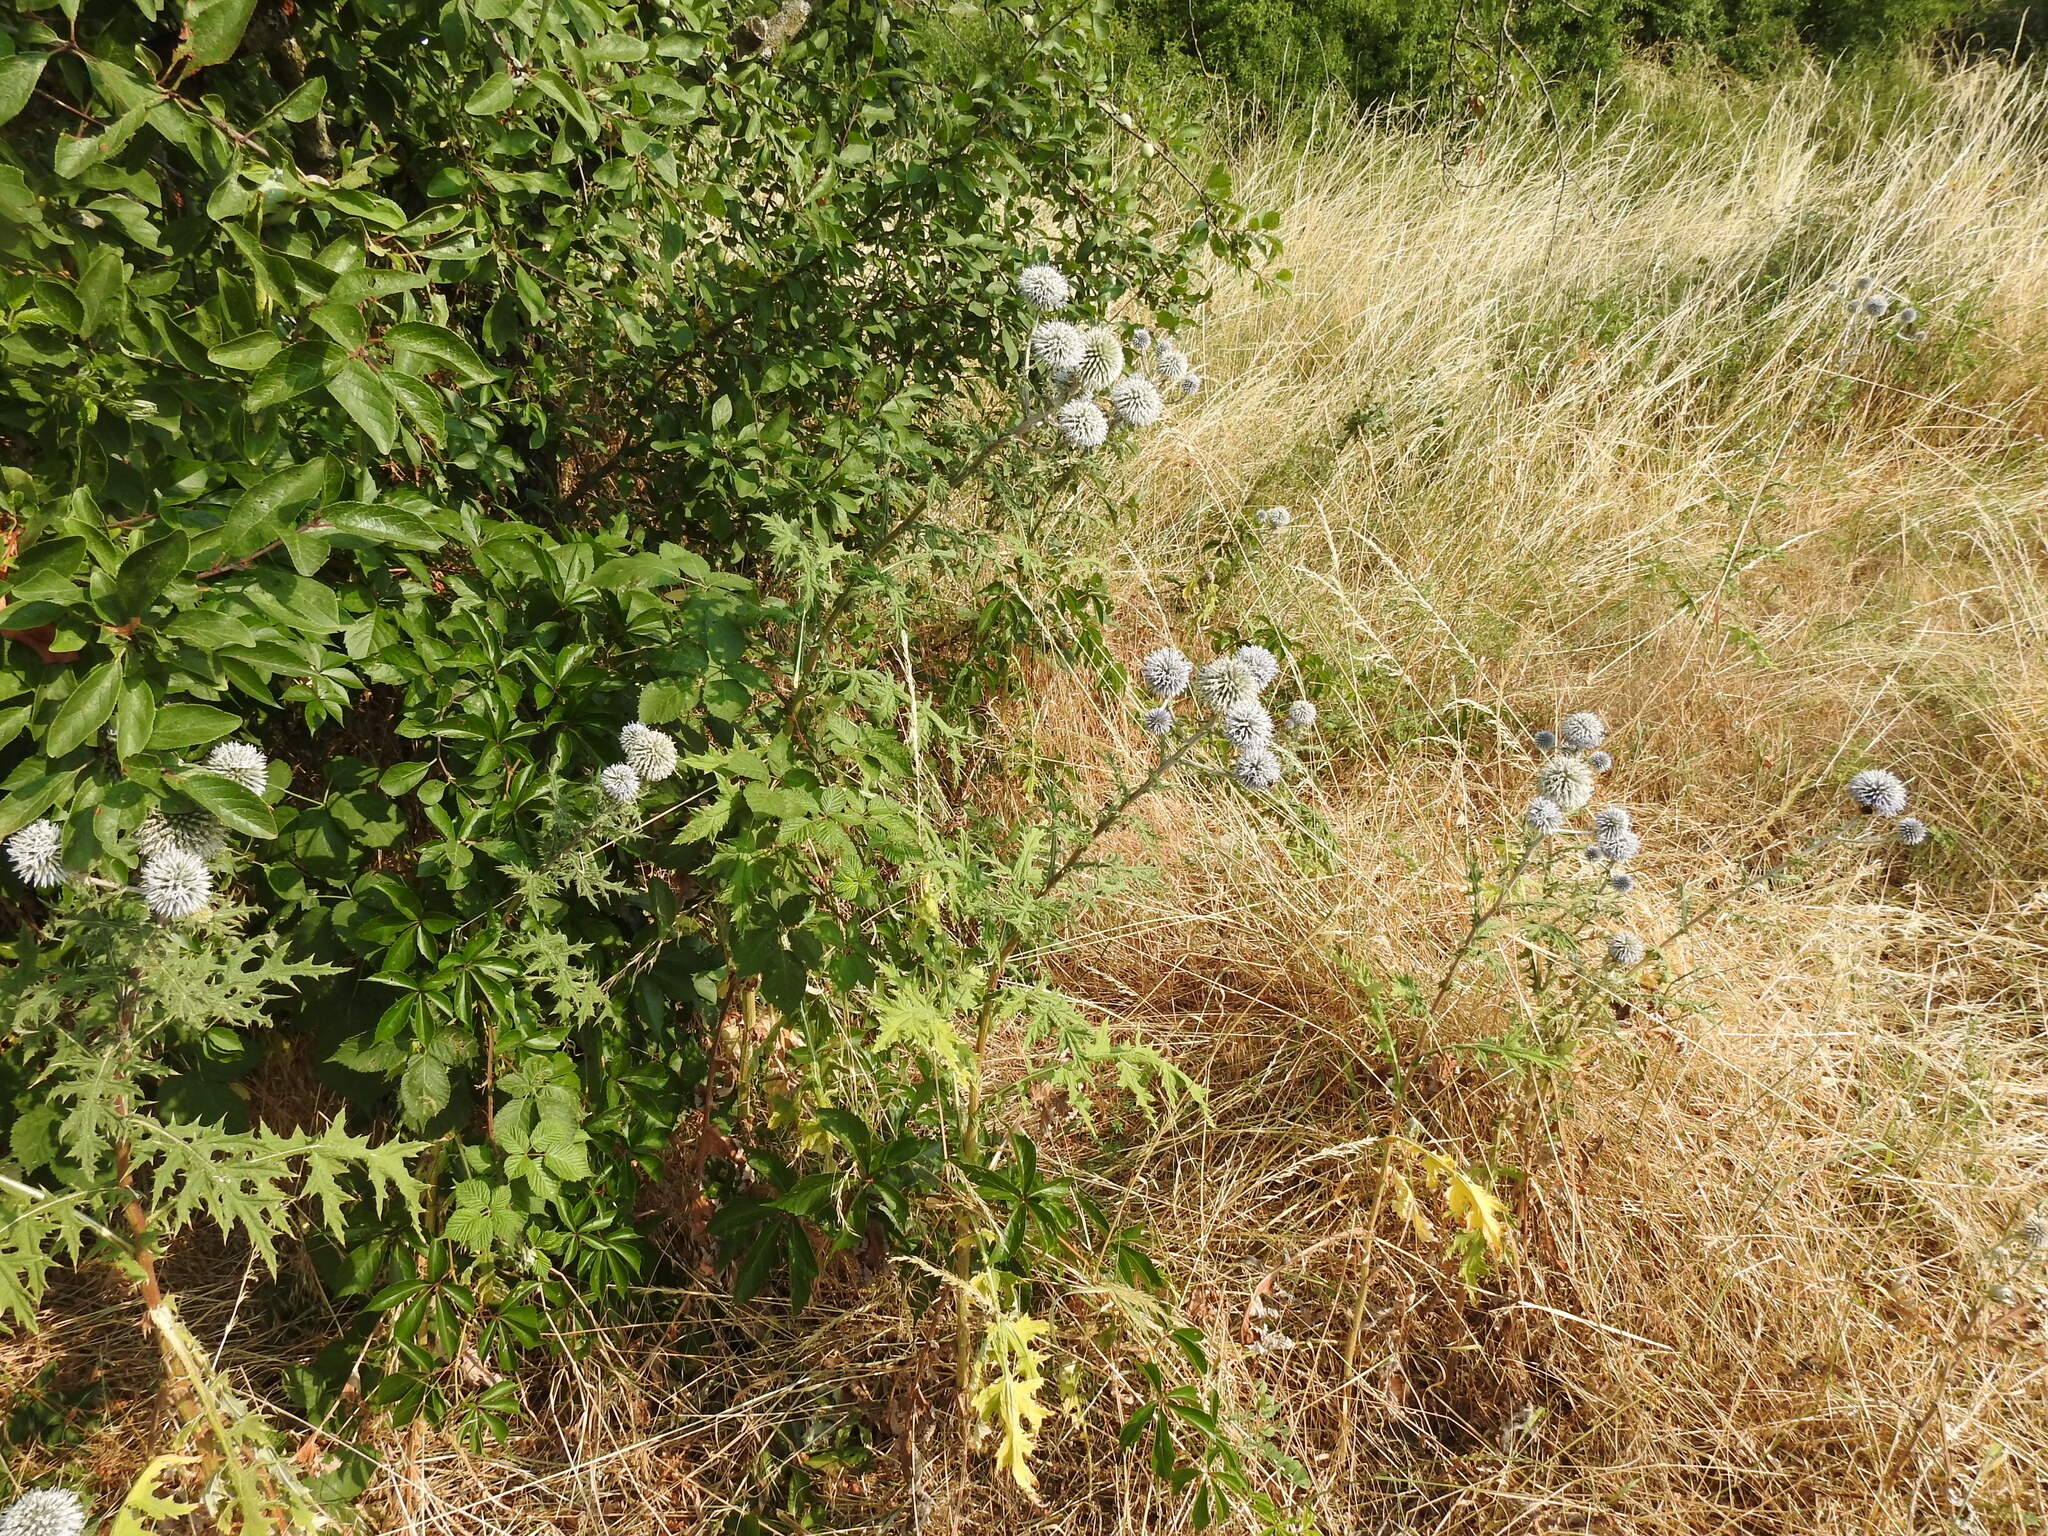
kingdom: Plantae
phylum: Tracheophyta
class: Magnoliopsida
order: Asterales
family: Asteraceae
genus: Echinops
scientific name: Echinops sphaerocephalus
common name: Glandular globe-thistle
